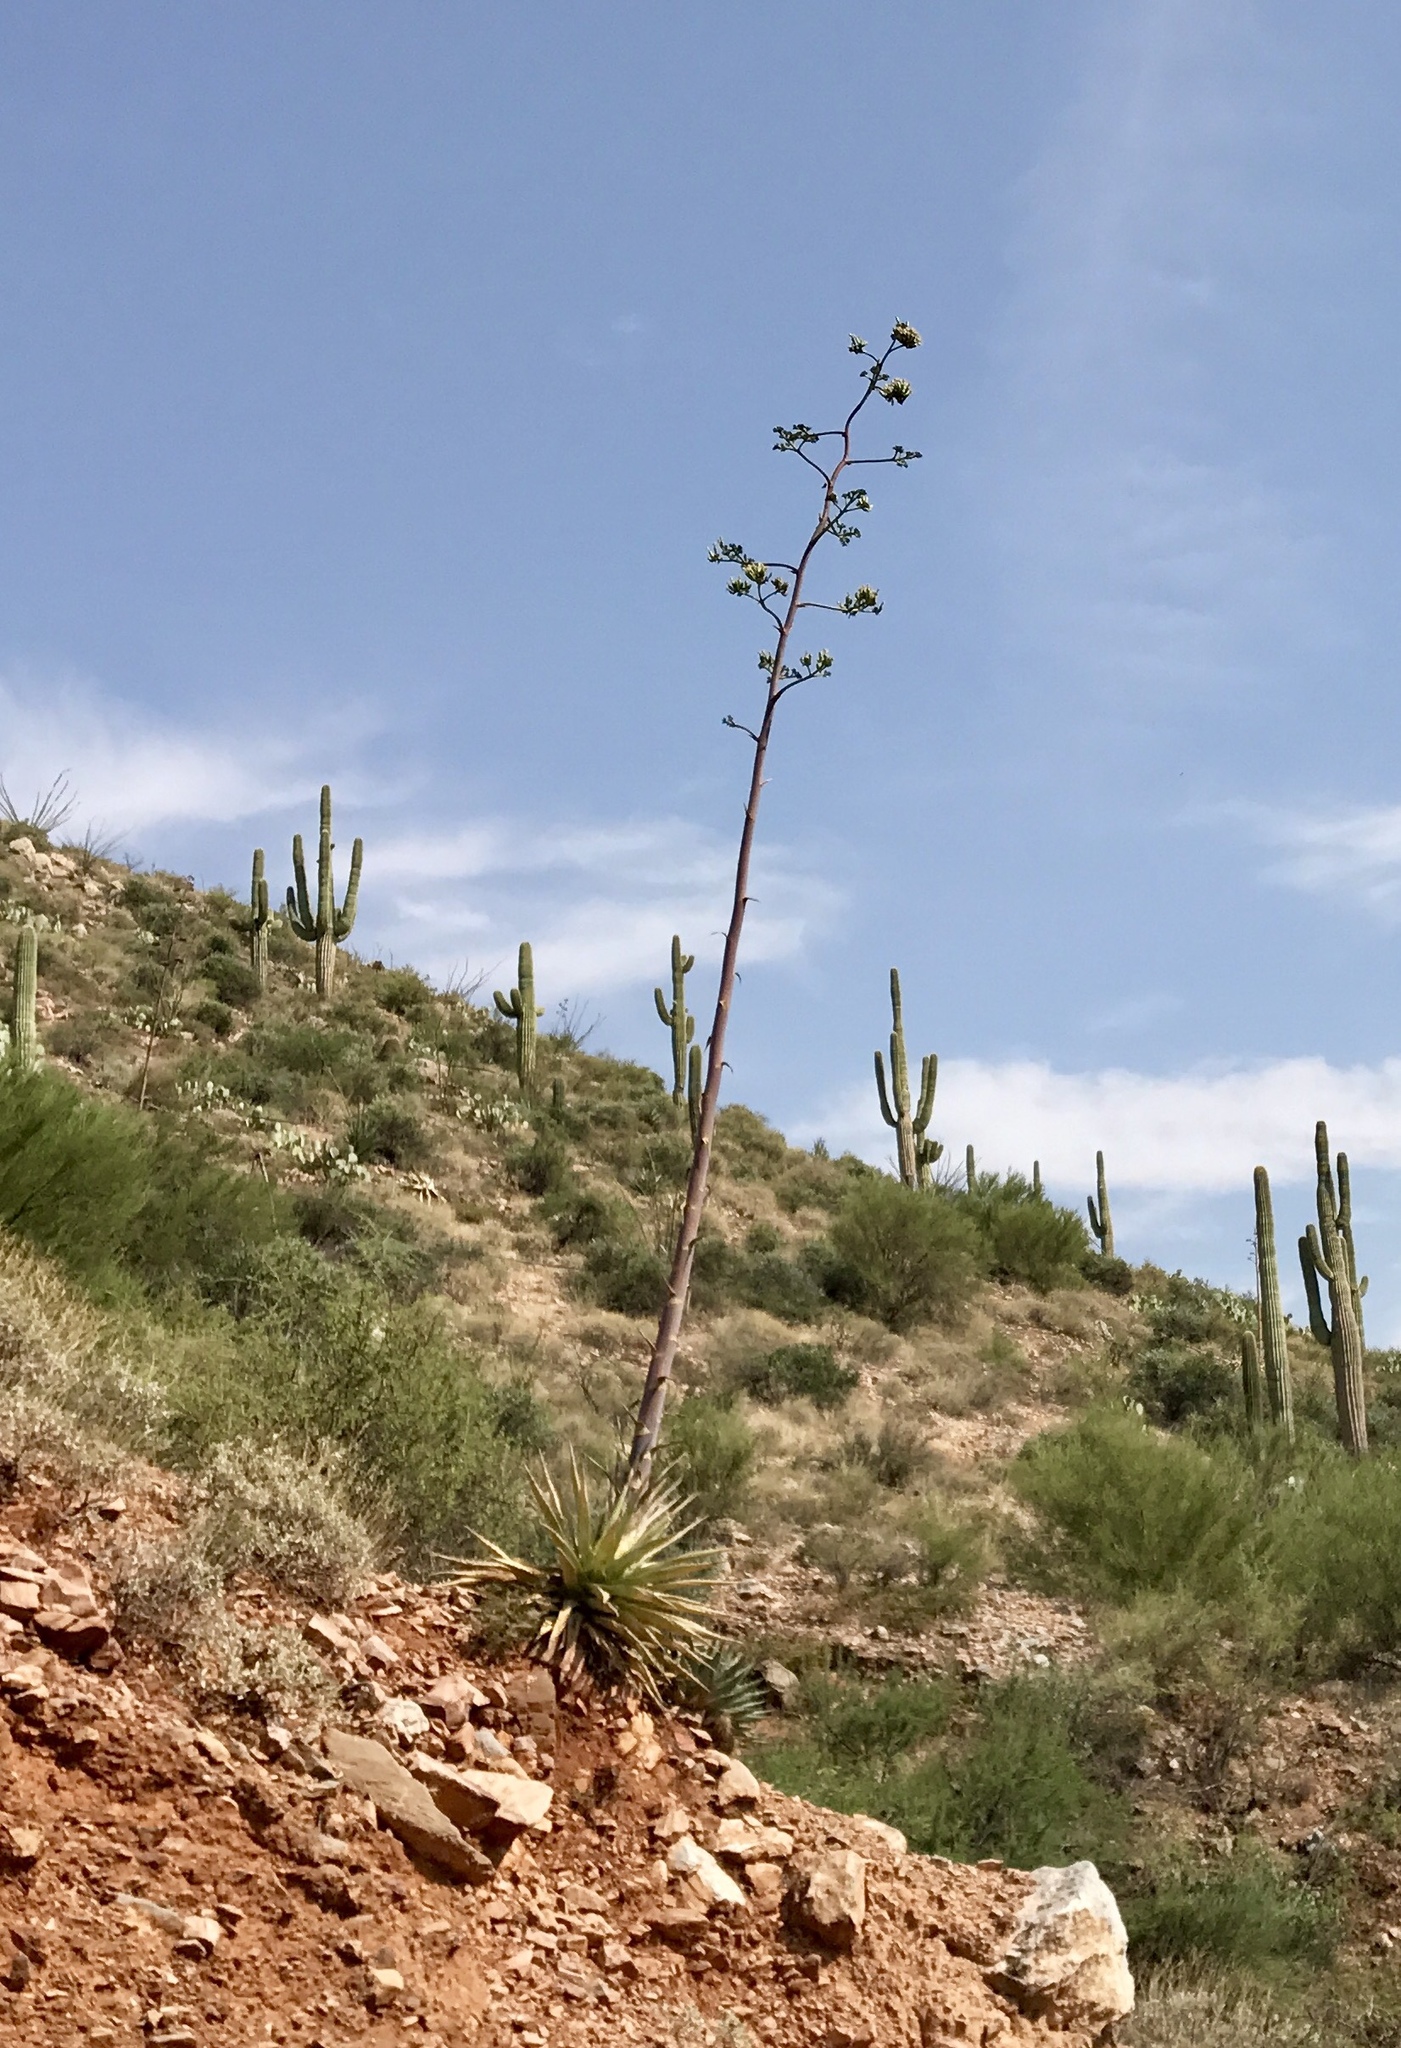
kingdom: Plantae
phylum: Tracheophyta
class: Liliopsida
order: Asparagales
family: Asparagaceae
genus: Agave
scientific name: Agave chrysantha
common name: Golden-flowered agave
